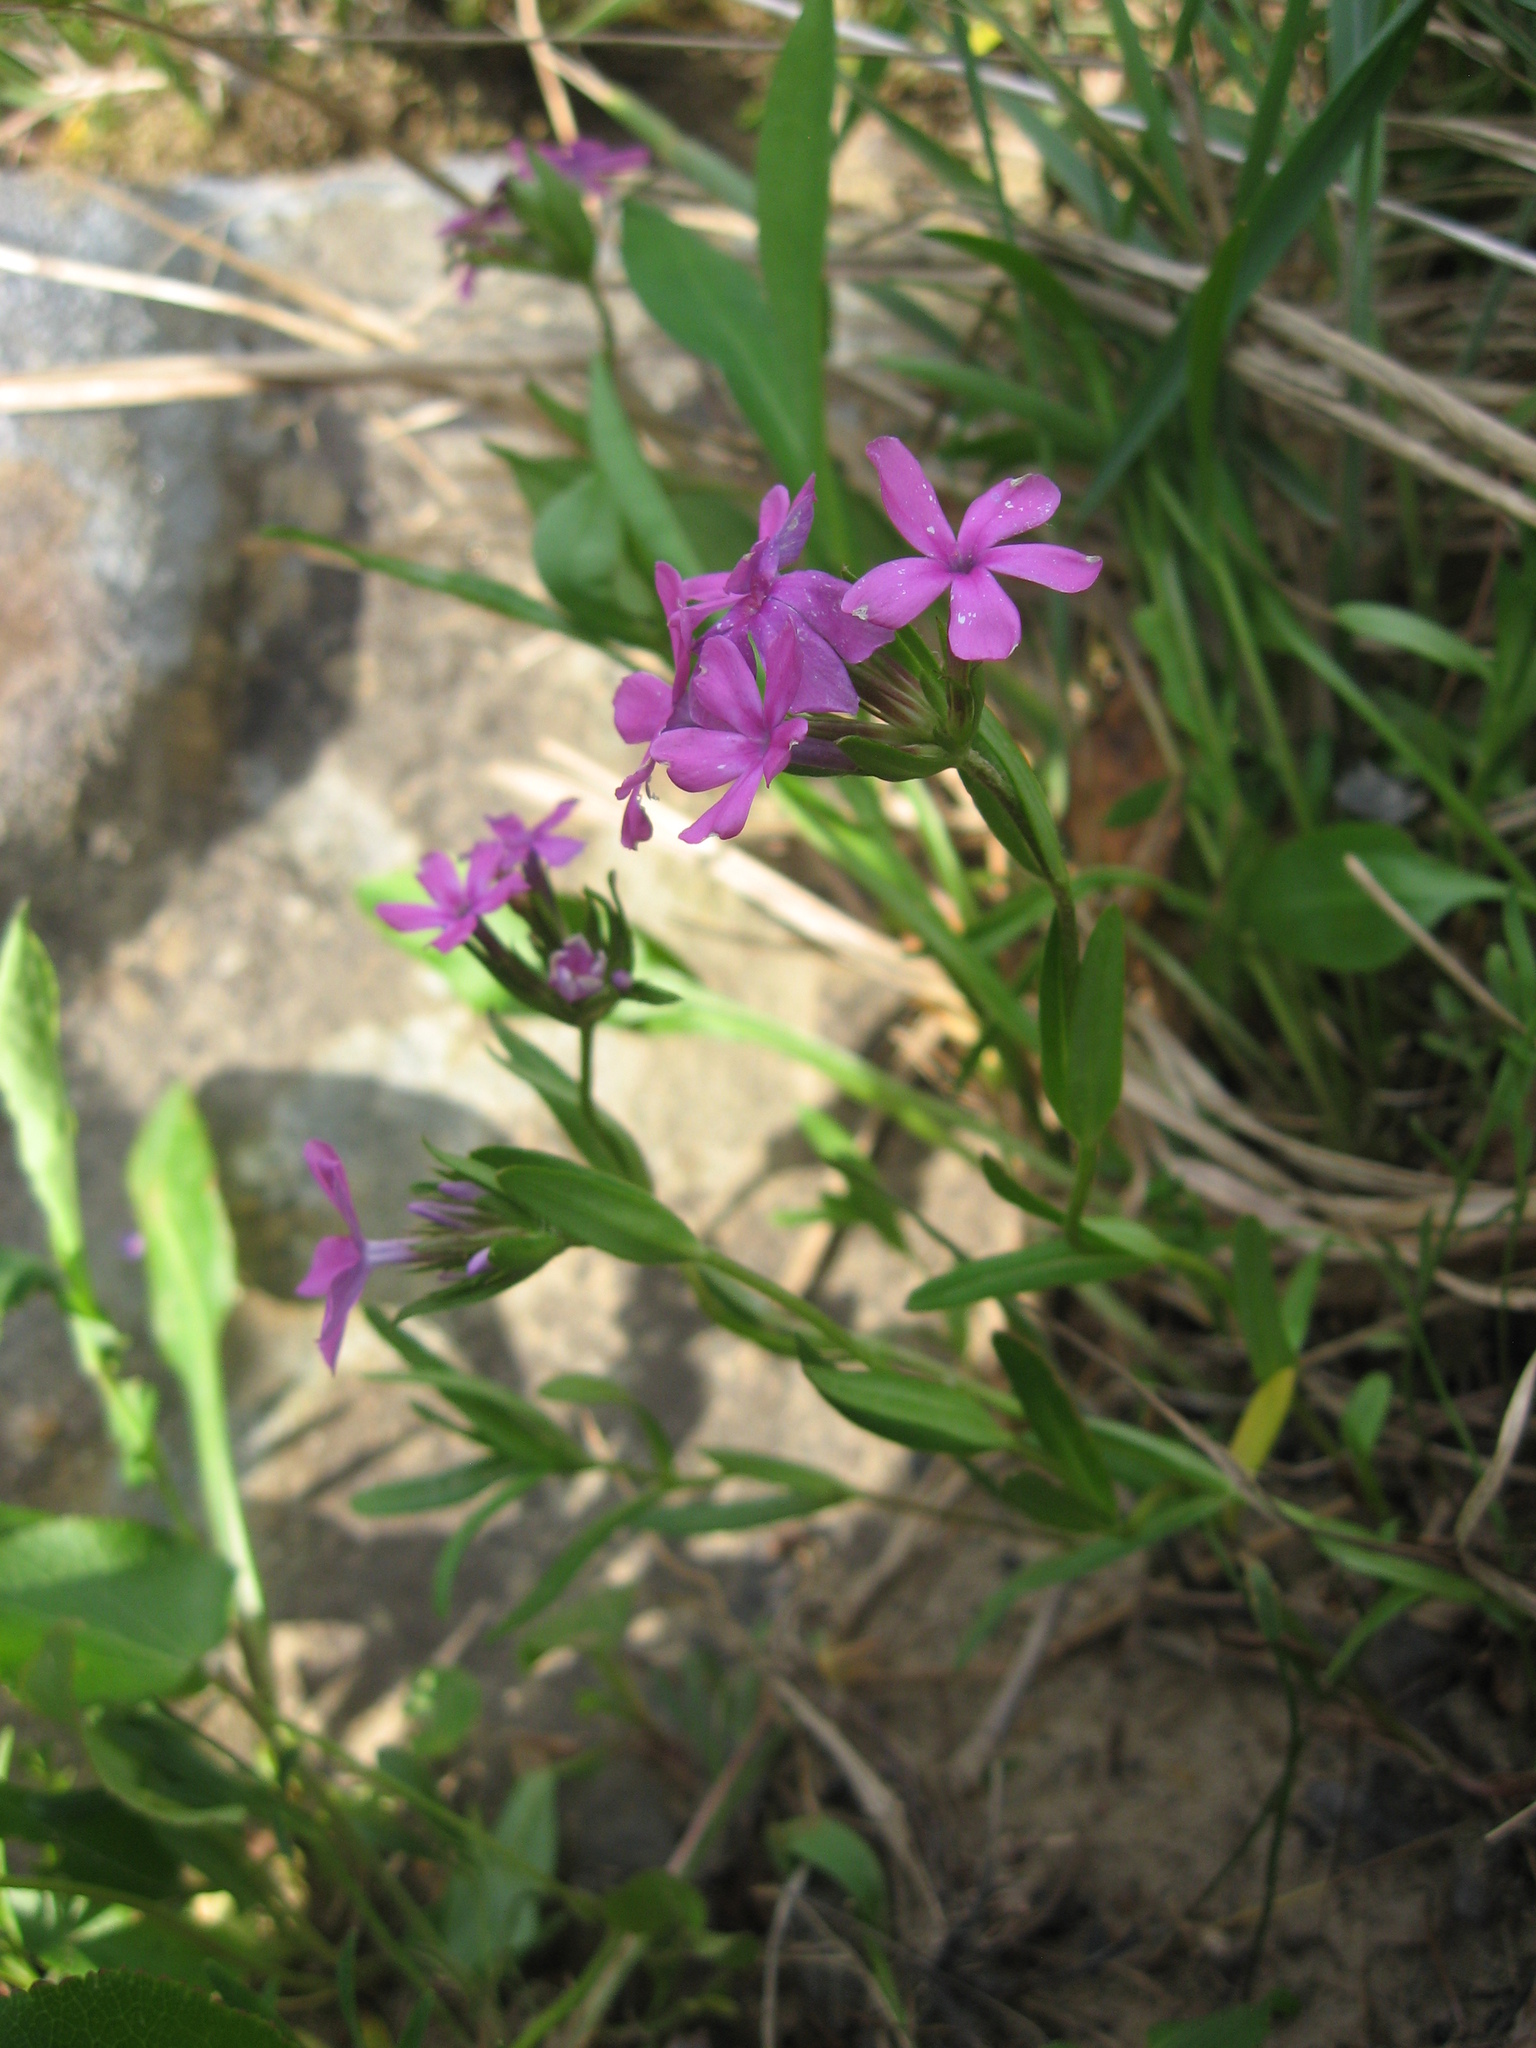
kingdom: Plantae
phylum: Tracheophyta
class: Magnoliopsida
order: Ericales
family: Polemoniaceae
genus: Phlox
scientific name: Phlox amoena
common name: Hairy phlox
